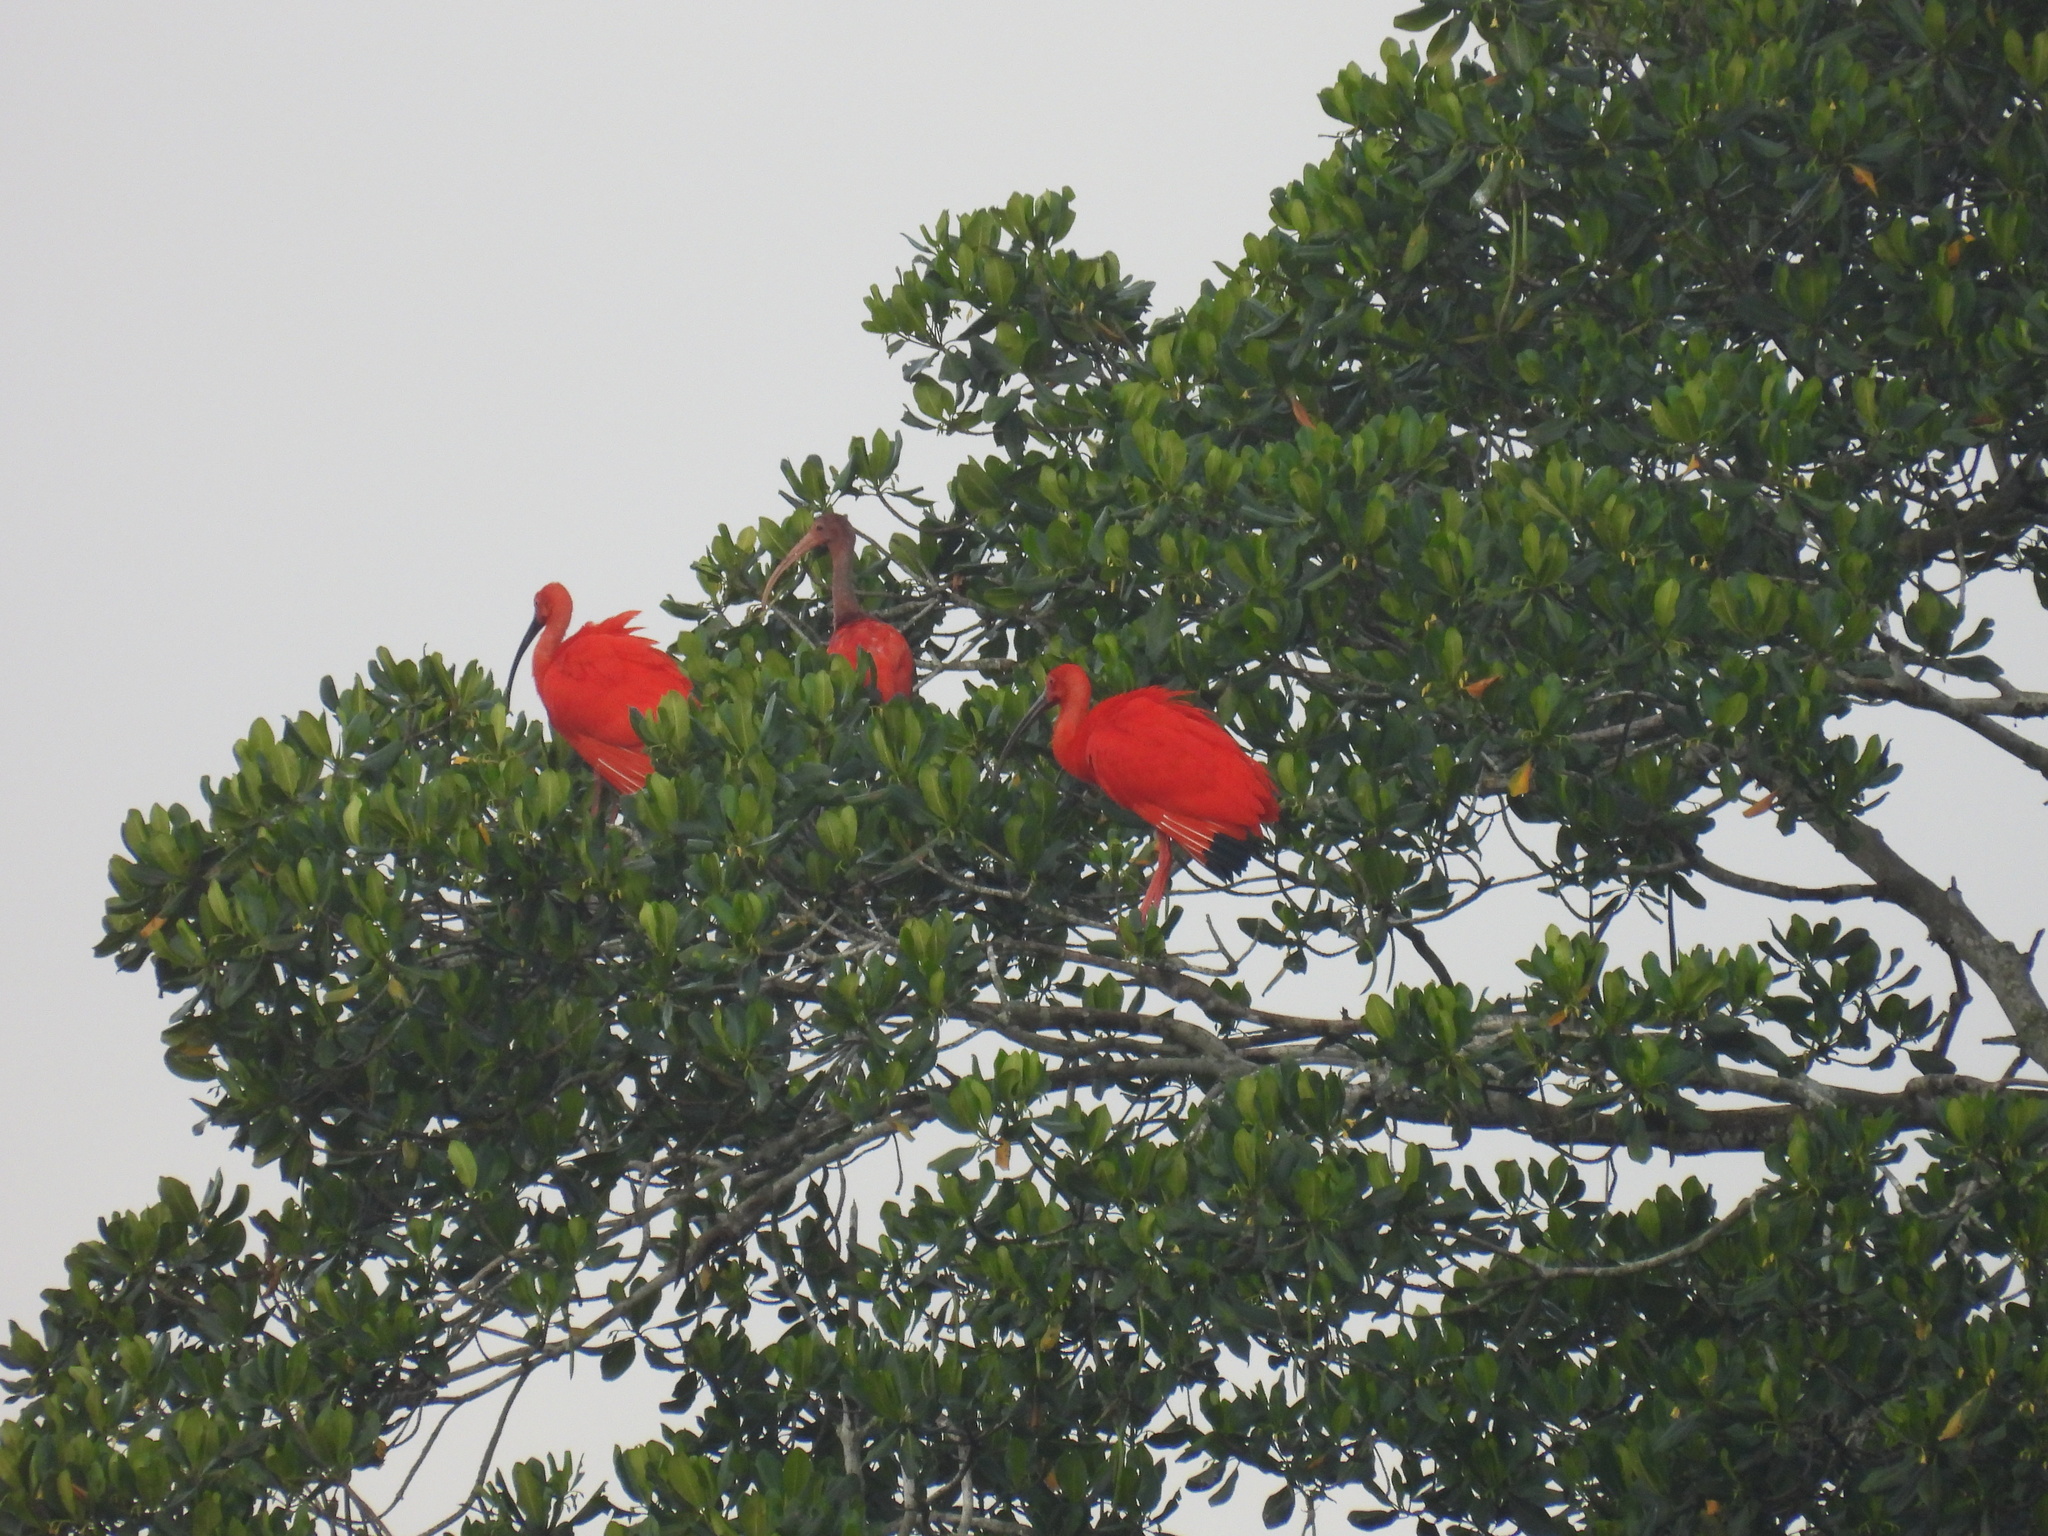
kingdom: Animalia
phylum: Chordata
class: Aves
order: Pelecaniformes
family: Threskiornithidae
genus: Eudocimus
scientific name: Eudocimus ruber
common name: Scarlet ibis
